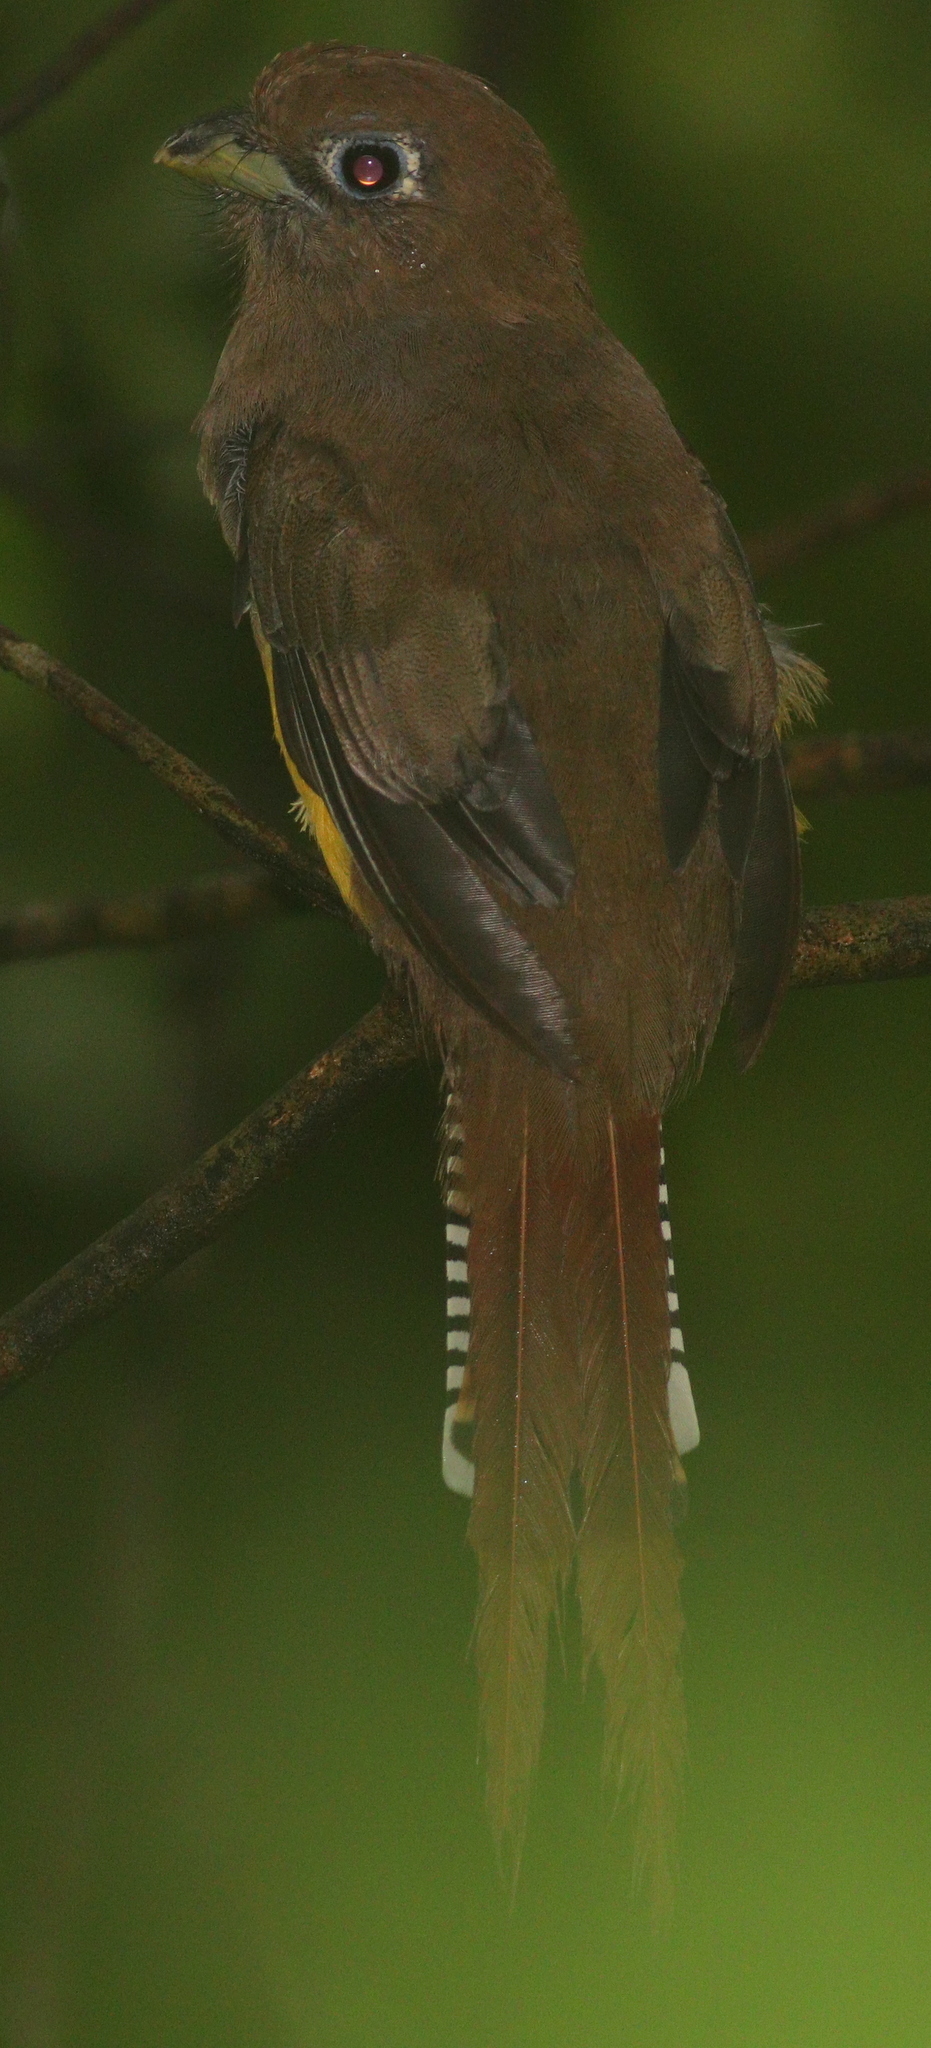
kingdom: Animalia
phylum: Chordata
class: Aves
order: Trogoniformes
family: Trogonidae
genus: Trogon
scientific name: Trogon rufus
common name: Black-throated trogon
